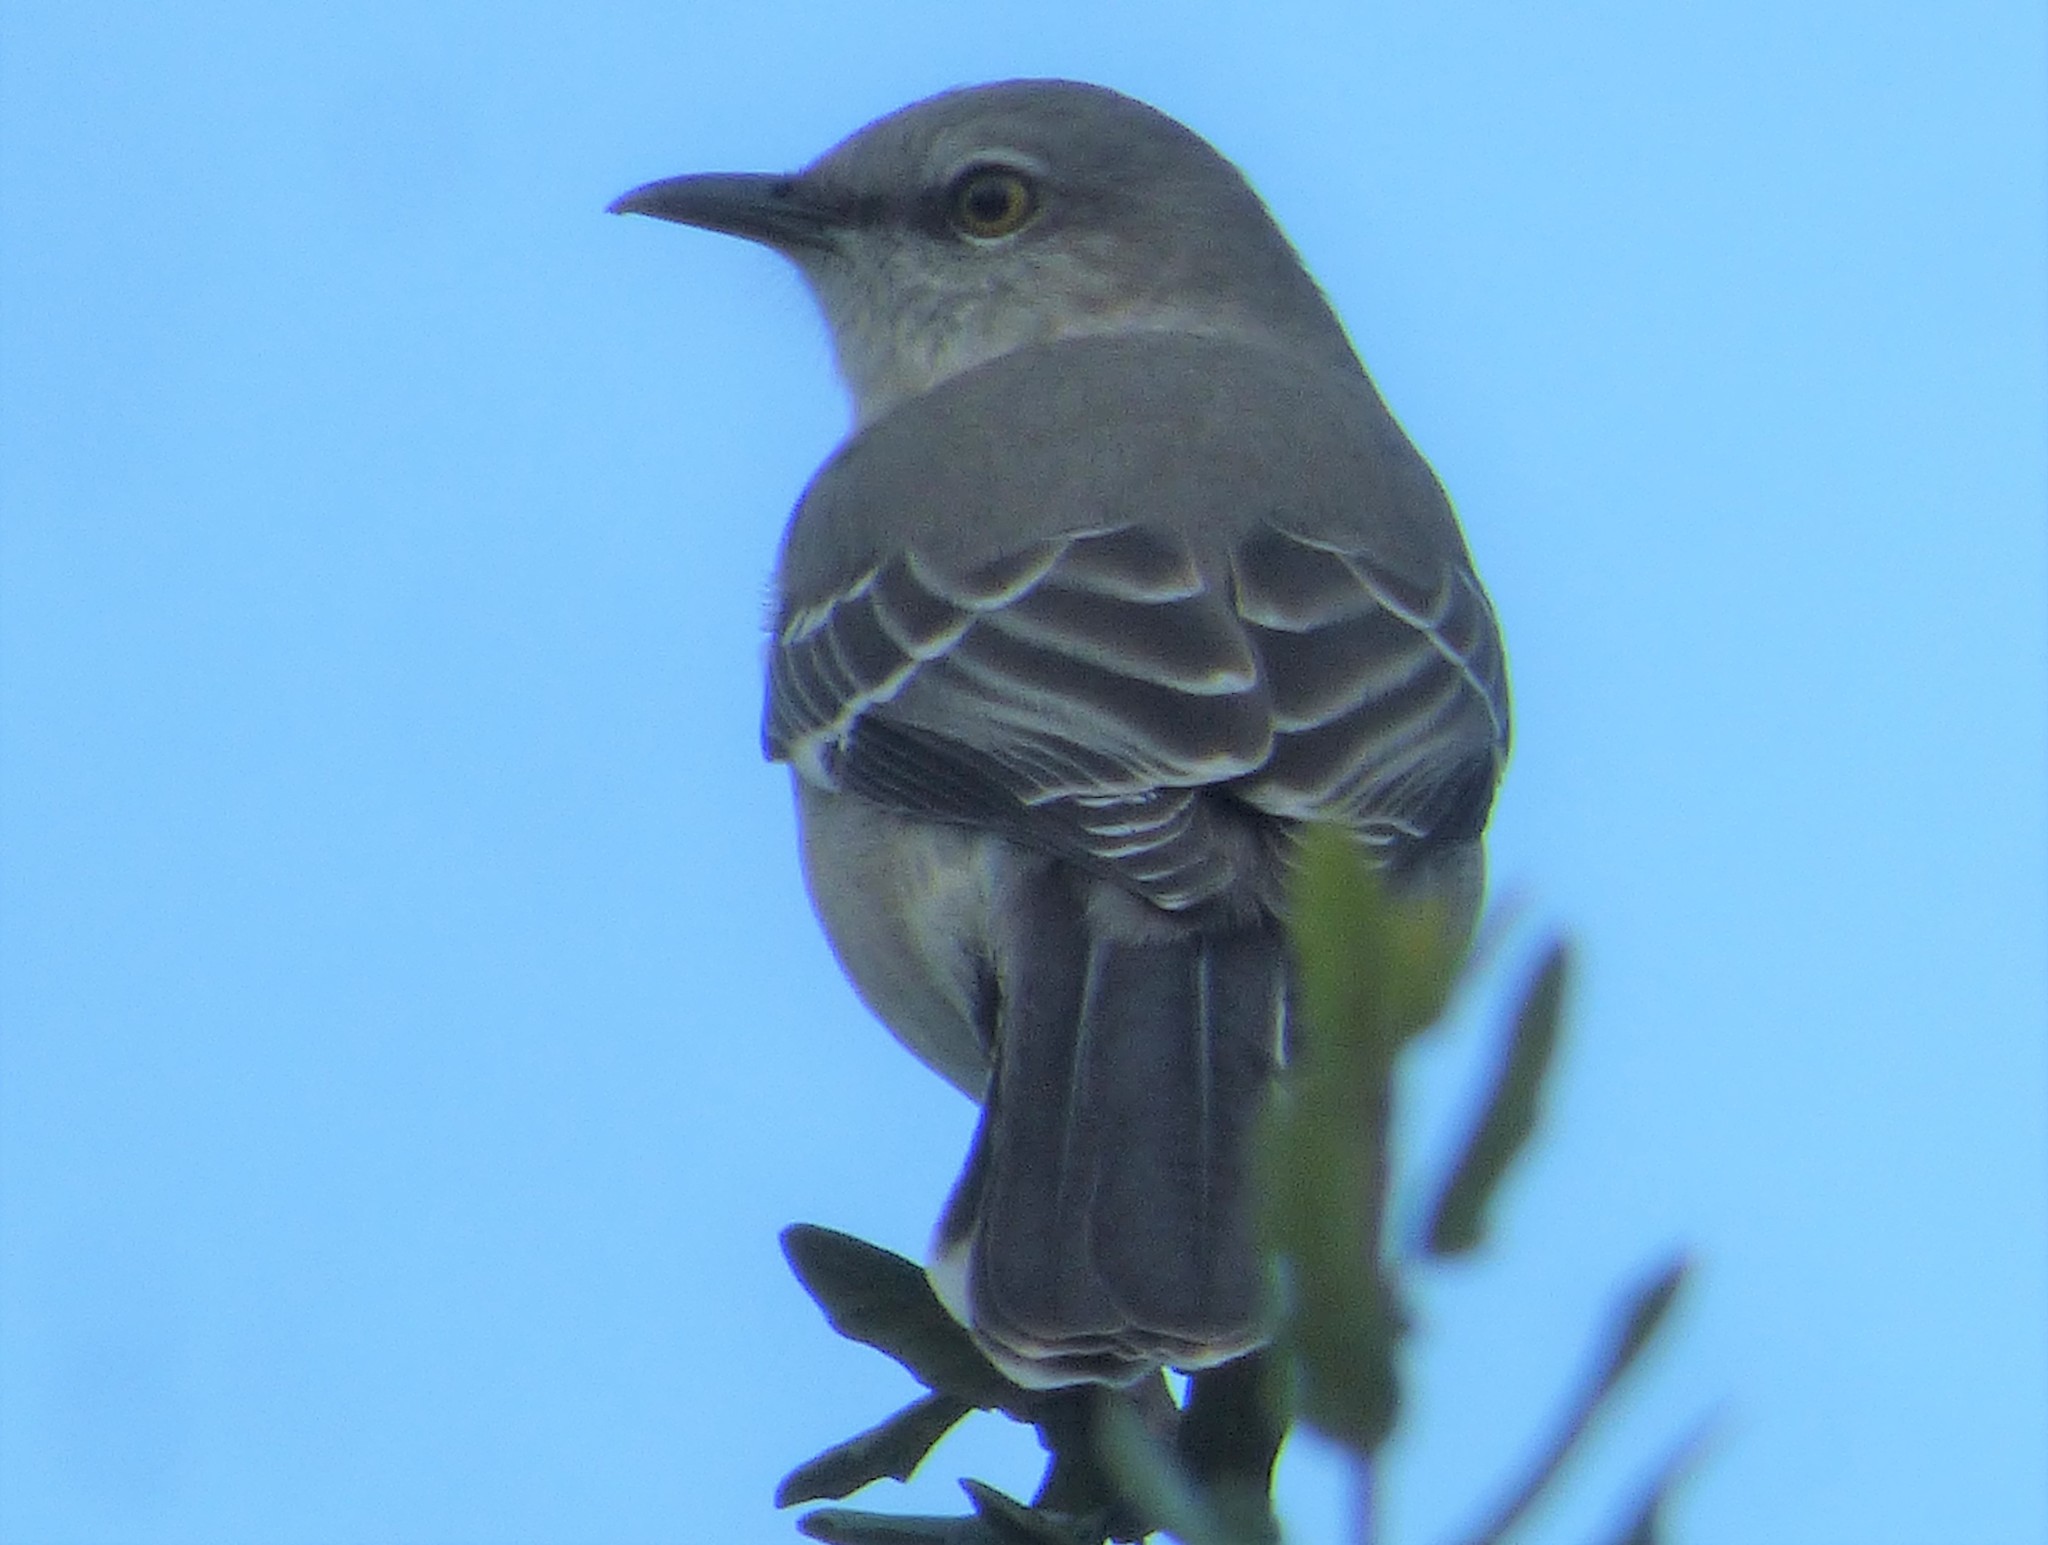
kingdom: Animalia
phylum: Chordata
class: Aves
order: Passeriformes
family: Mimidae
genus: Mimus
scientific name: Mimus polyglottos
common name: Northern mockingbird
